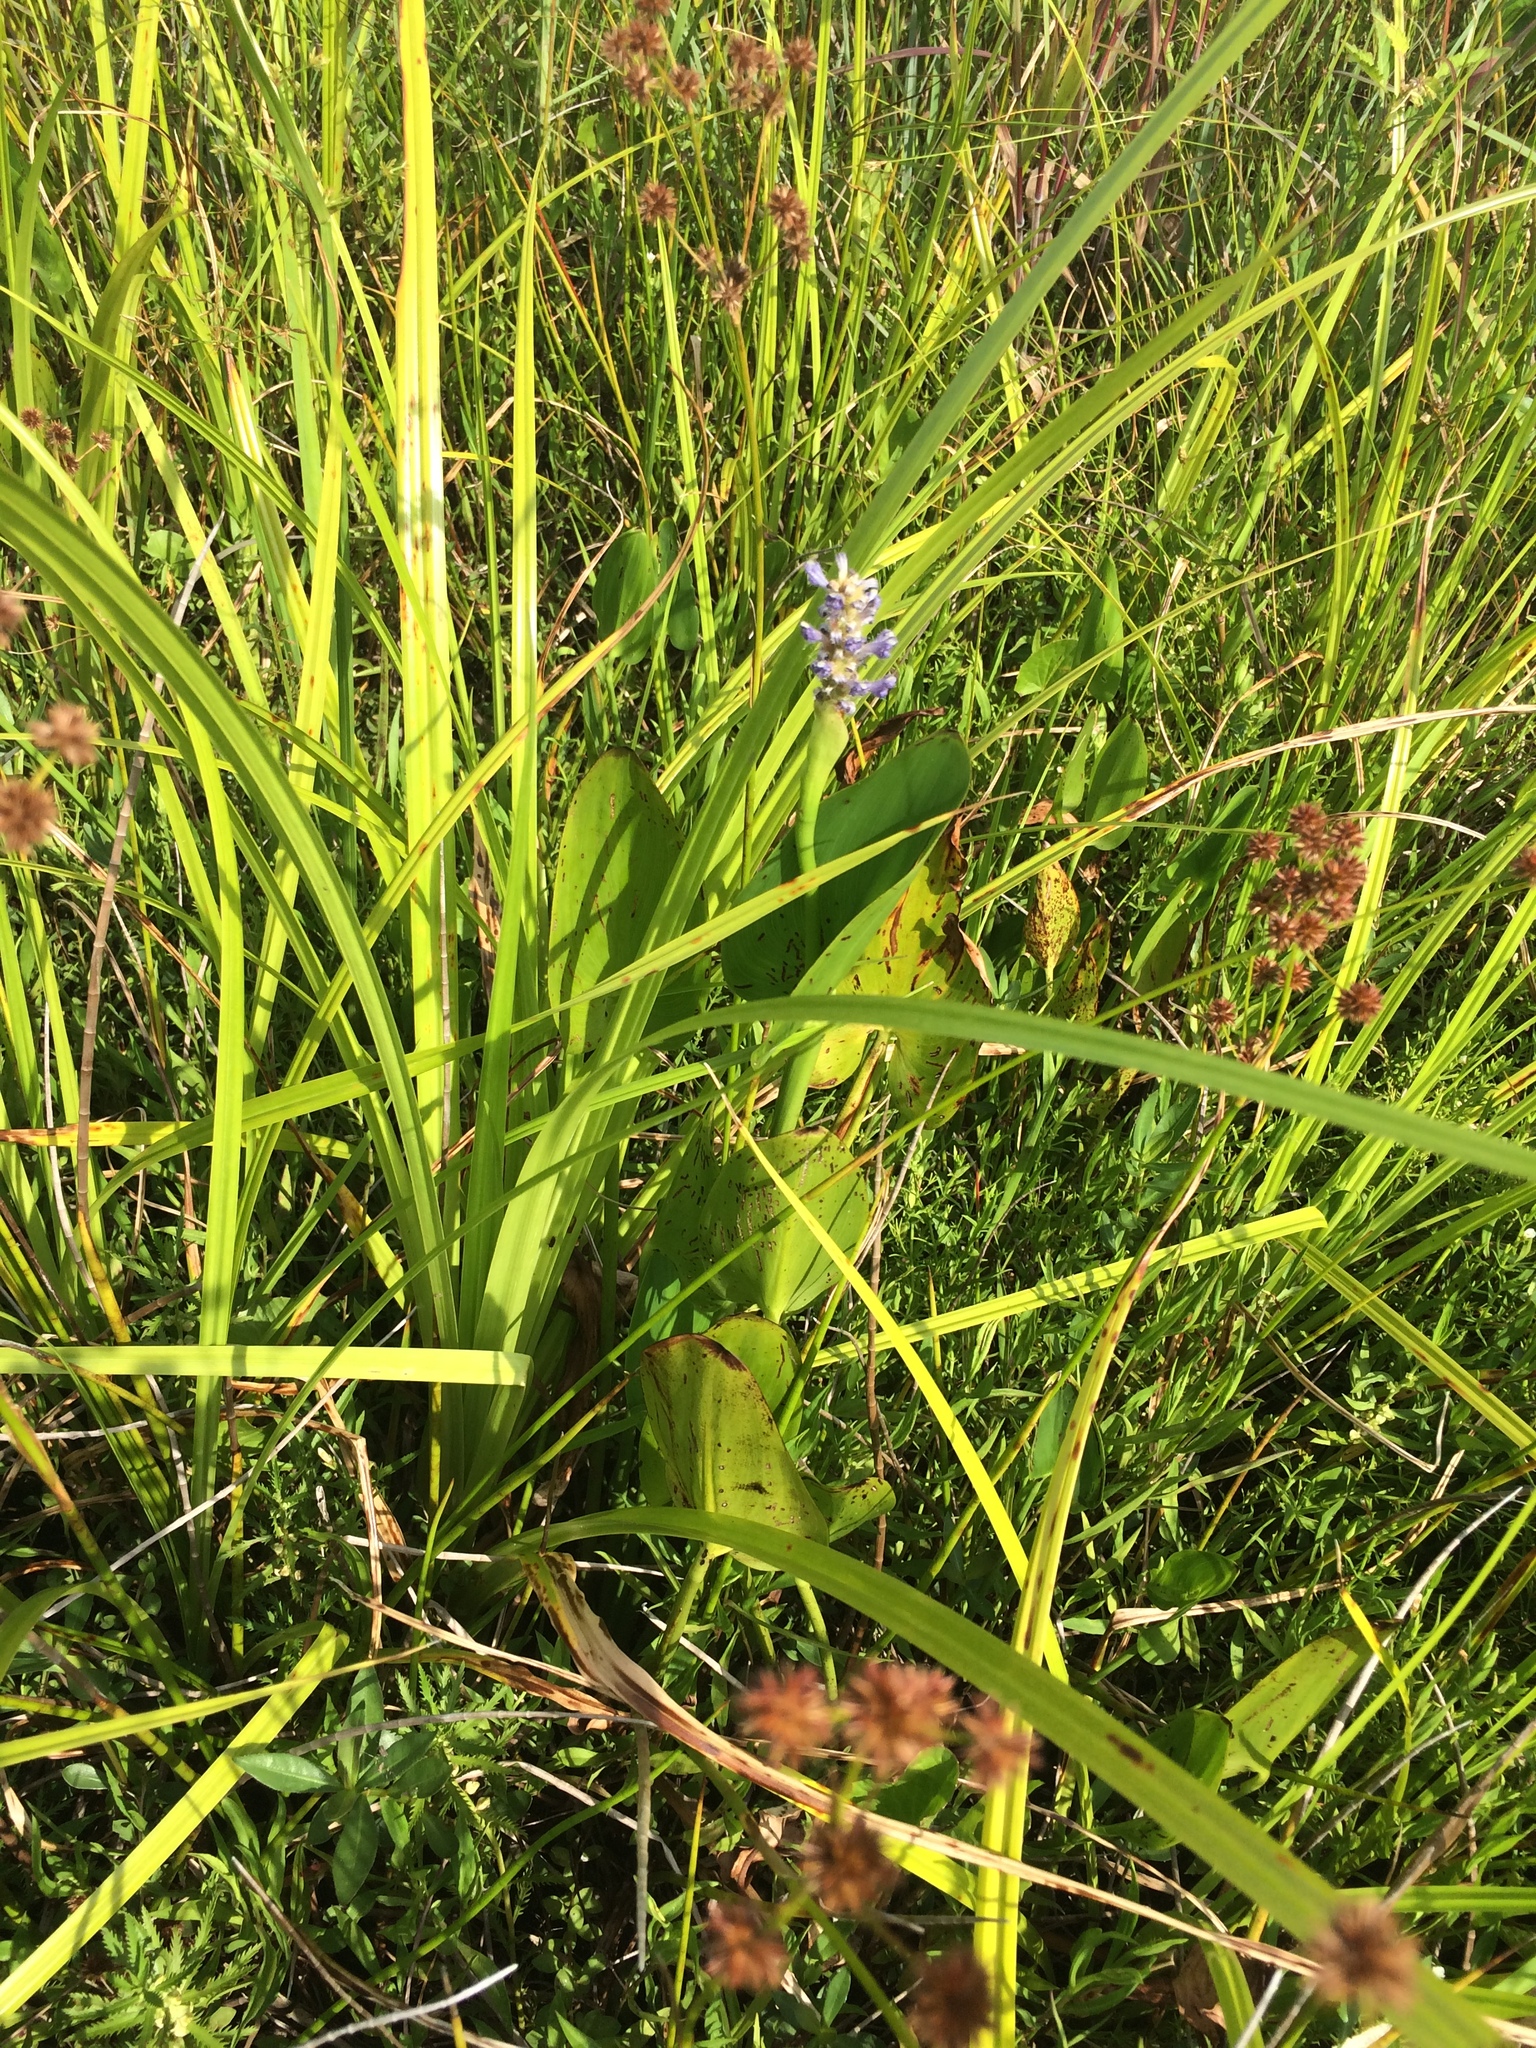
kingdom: Plantae
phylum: Tracheophyta
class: Liliopsida
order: Commelinales
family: Pontederiaceae
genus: Pontederia
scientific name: Pontederia cordata
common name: Pickerelweed
